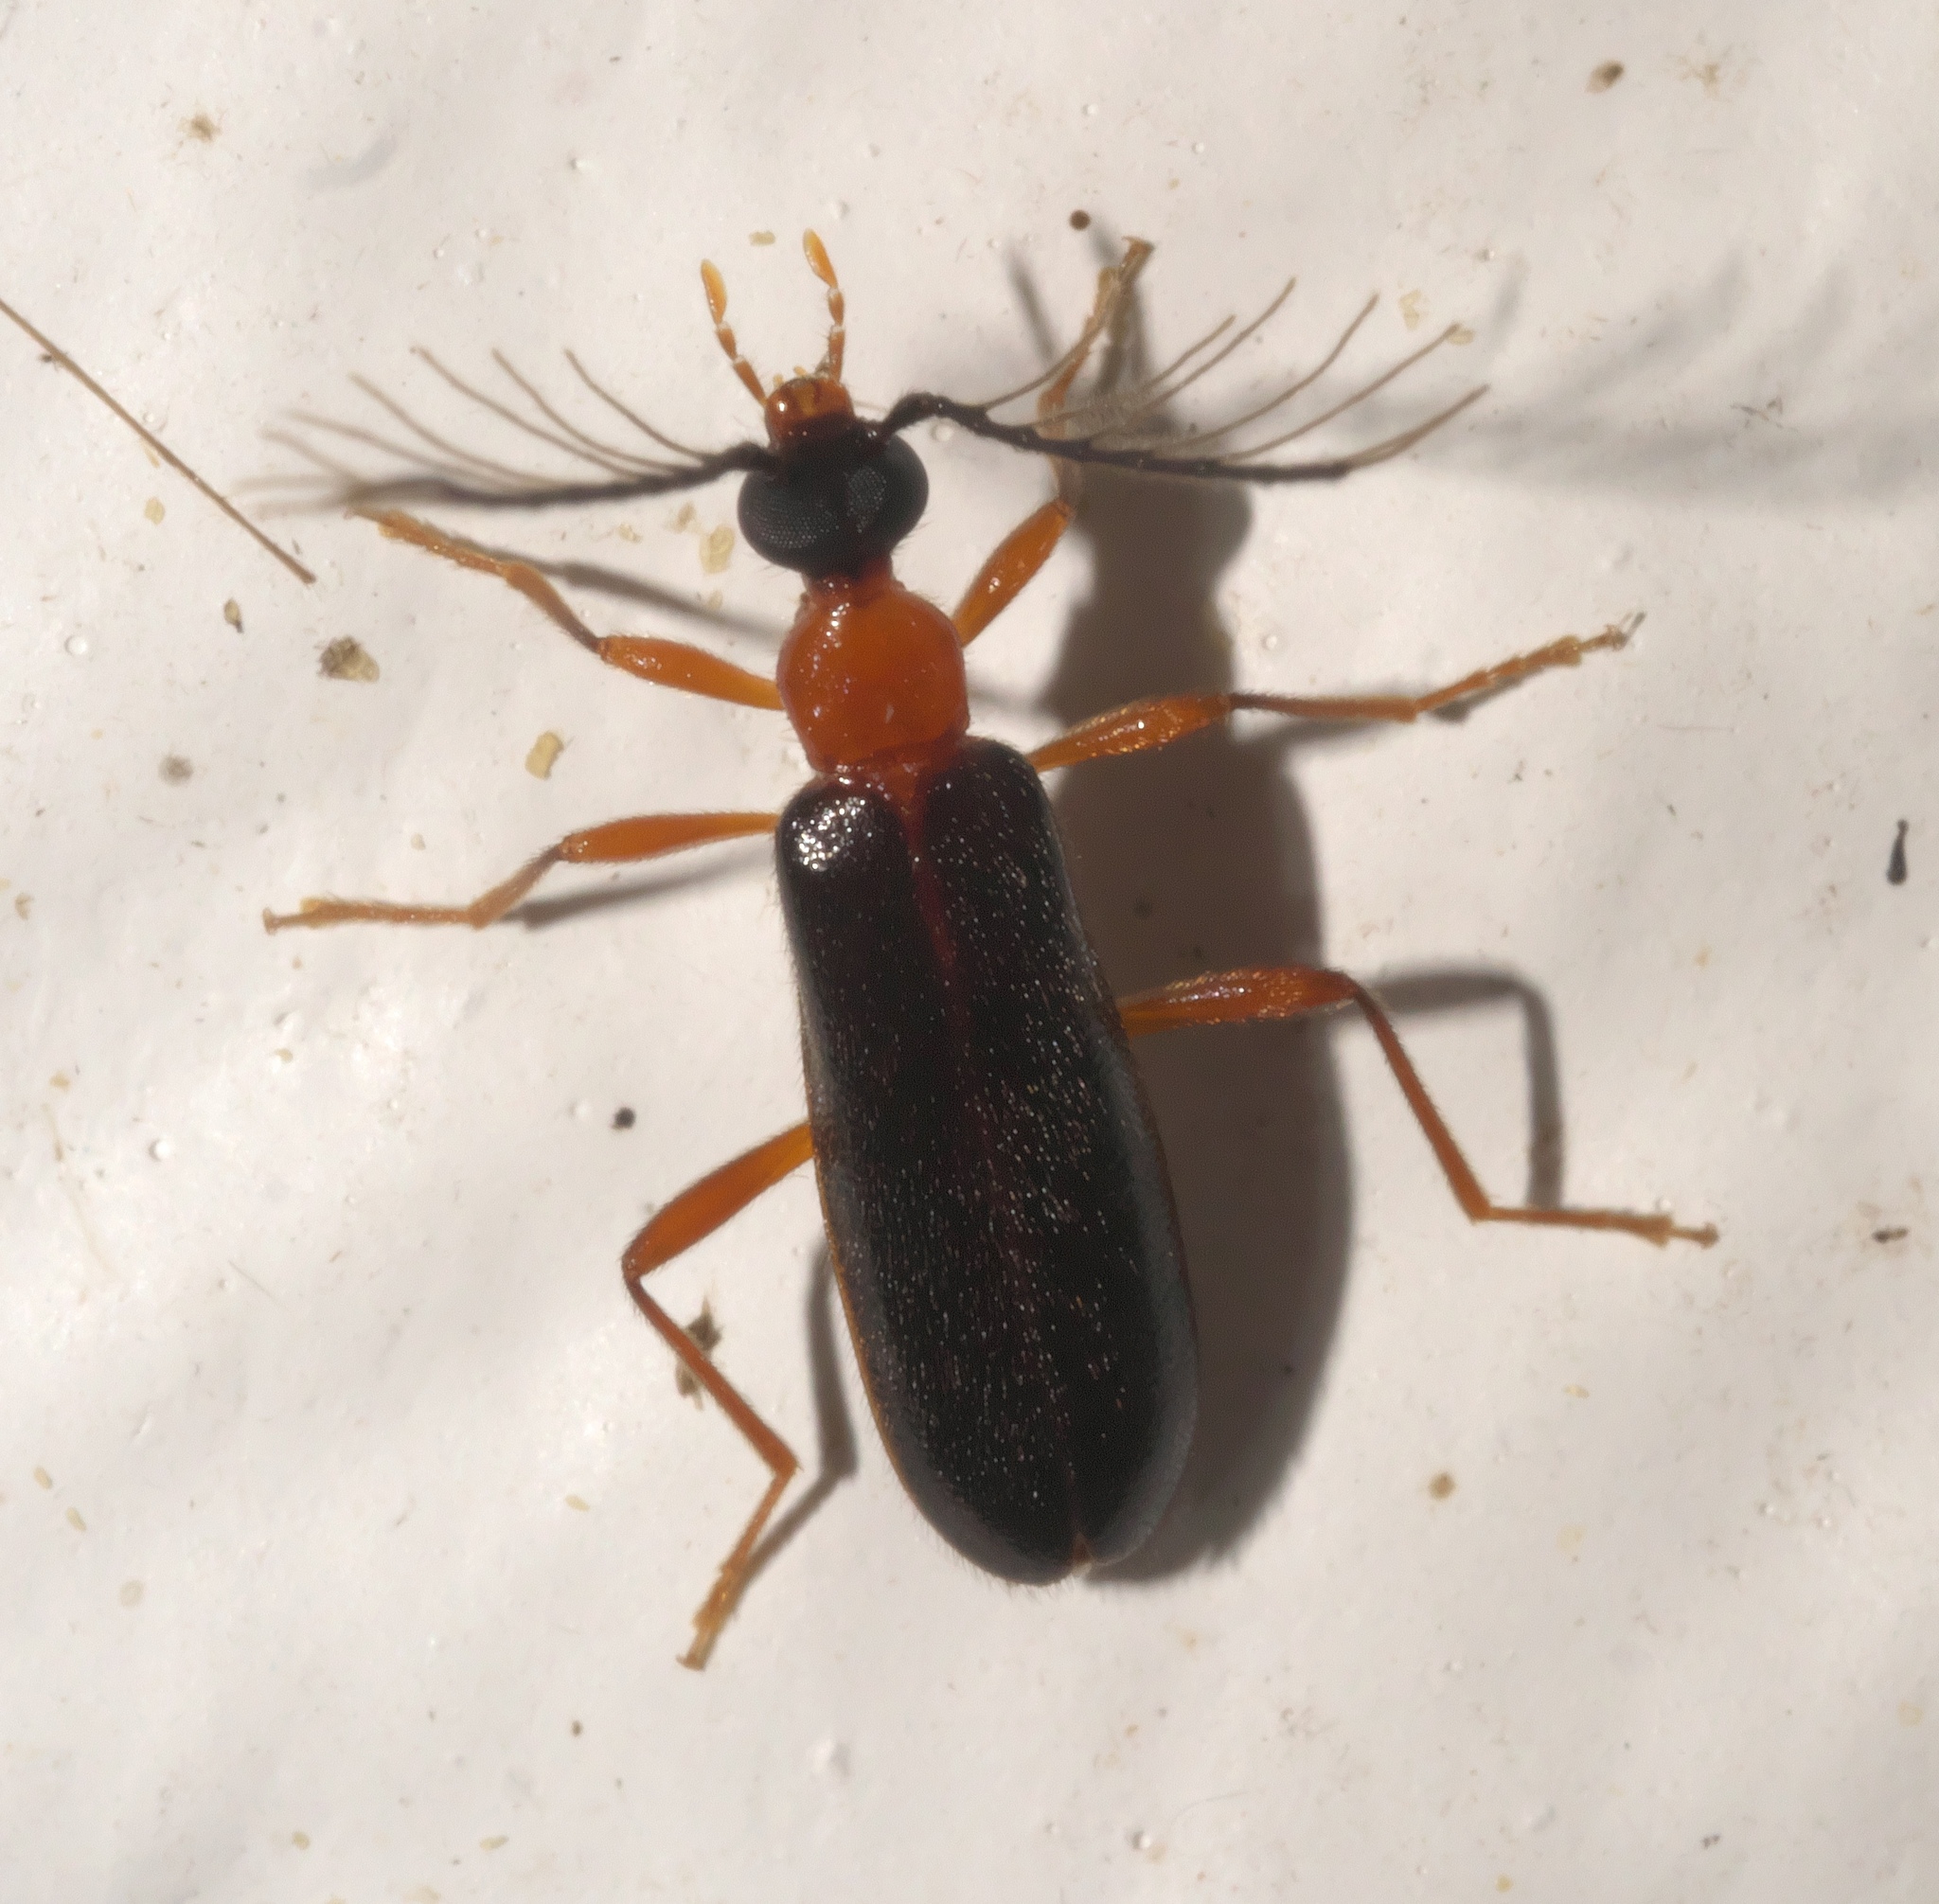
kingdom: Animalia
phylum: Arthropoda
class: Insecta
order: Coleoptera
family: Pyrochroidae
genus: Dendroides
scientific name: Dendroides canadensis
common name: Canada fire-colored beetle
